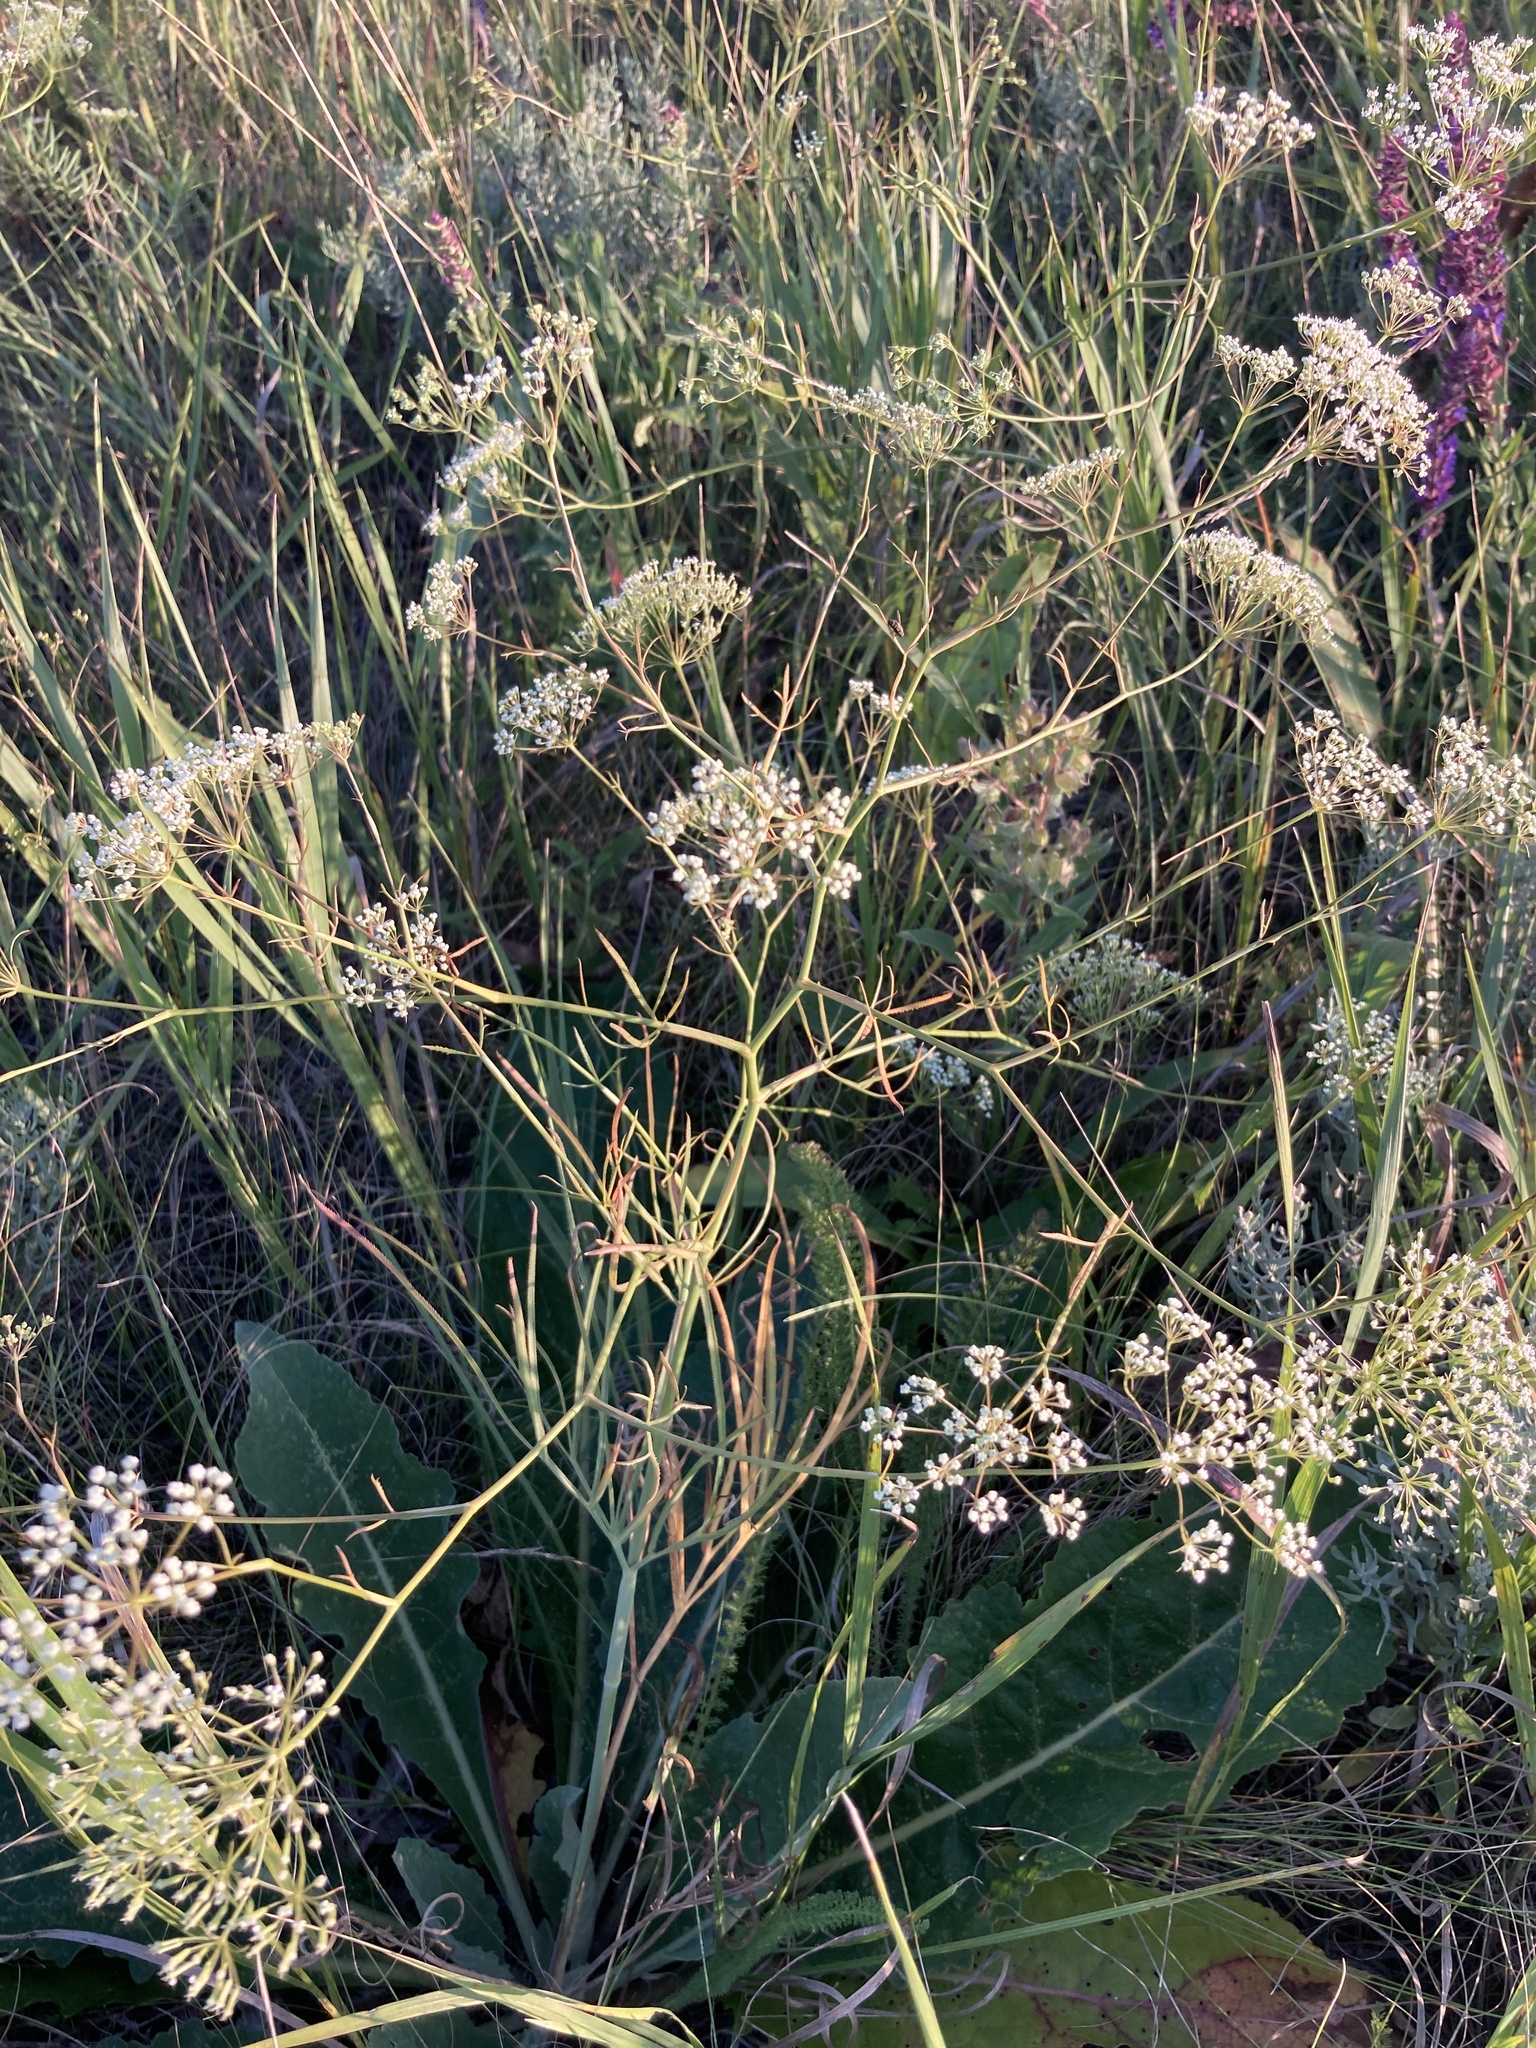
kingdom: Plantae
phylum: Tracheophyta
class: Magnoliopsida
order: Apiales
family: Apiaceae
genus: Falcaria
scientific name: Falcaria vulgaris
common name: Longleaf
